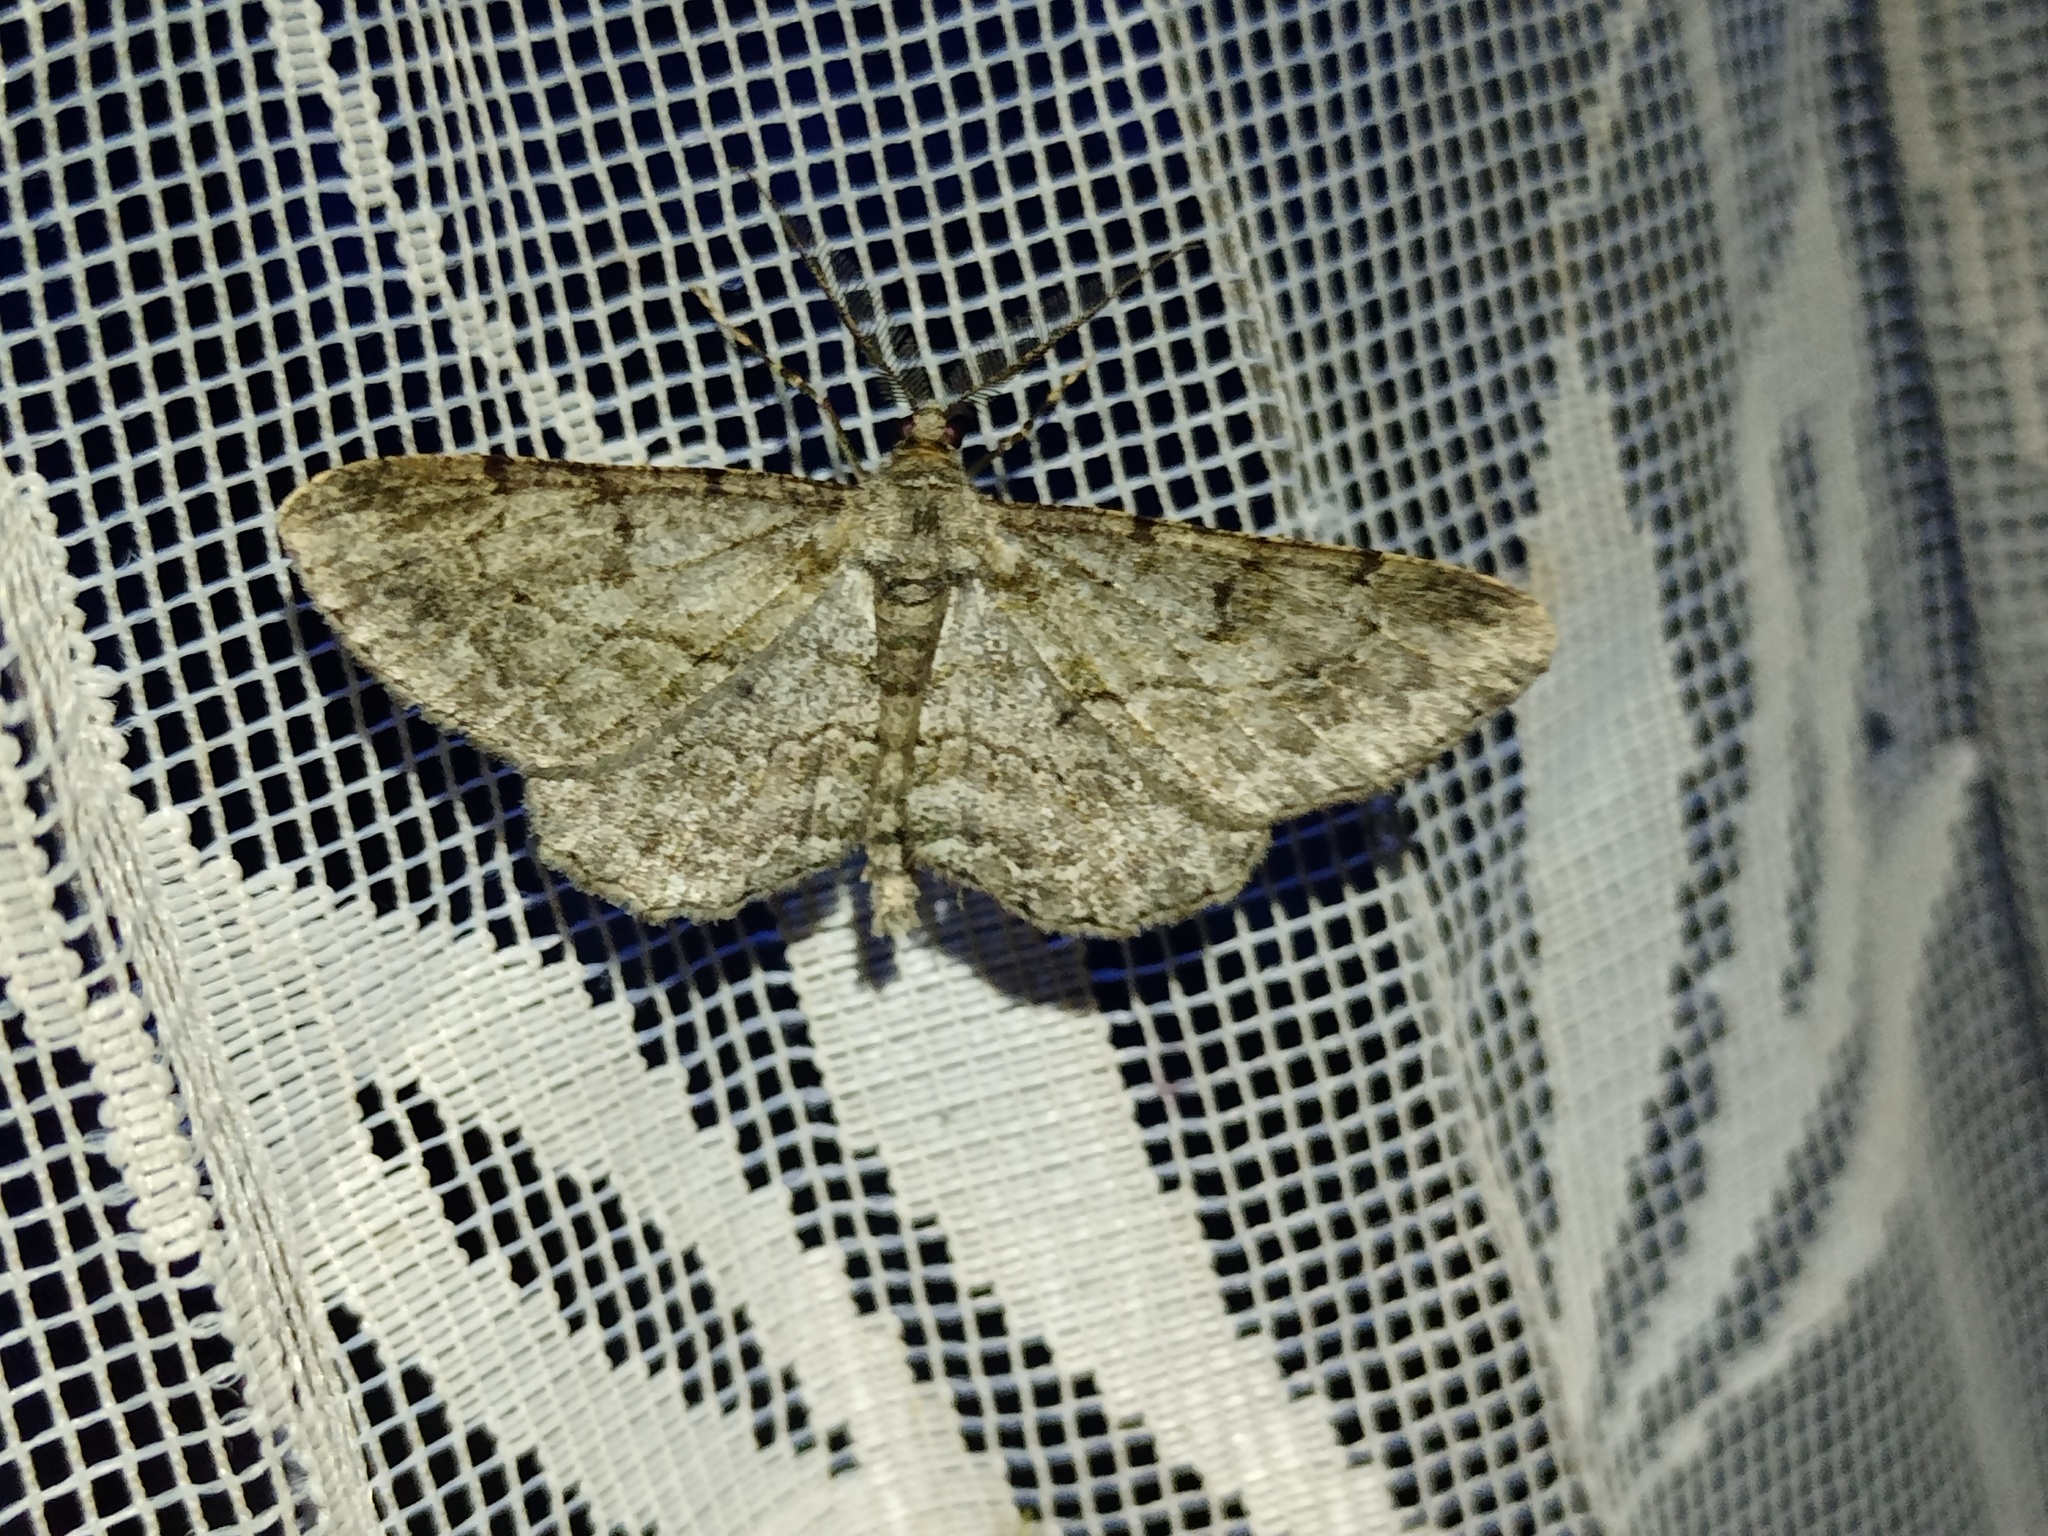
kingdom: Animalia
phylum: Arthropoda
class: Insecta
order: Lepidoptera
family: Geometridae
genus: Peribatodes
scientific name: Peribatodes rhomboidaria
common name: Willow beauty
